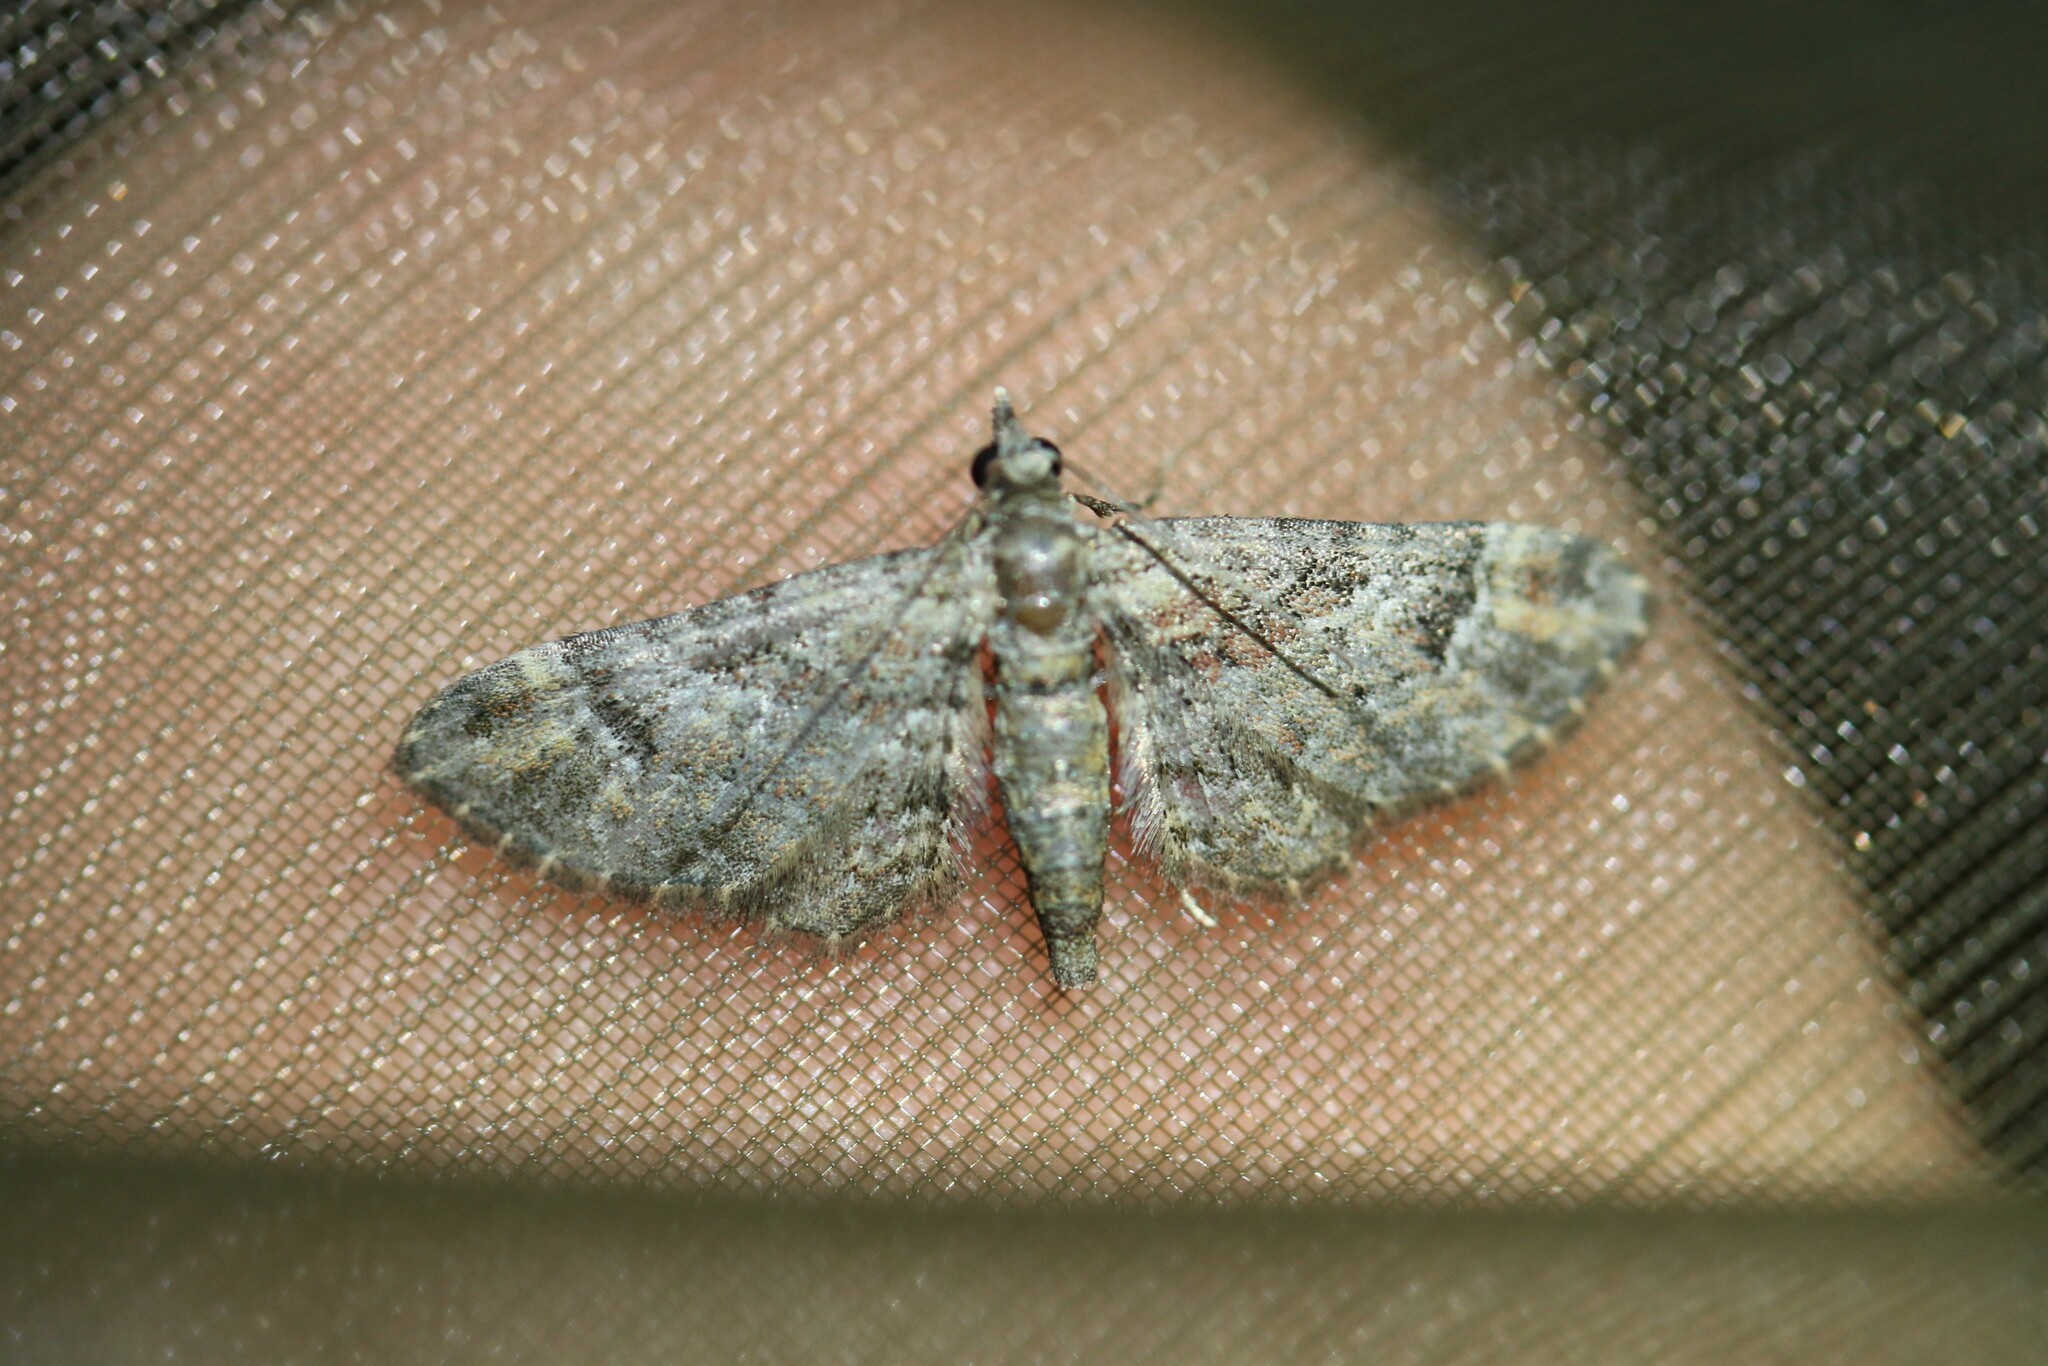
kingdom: Animalia
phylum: Arthropoda
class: Insecta
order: Lepidoptera
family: Geometridae
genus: Gymnoscelis
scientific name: Gymnoscelis rufifasciata
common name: Double-striped pug
